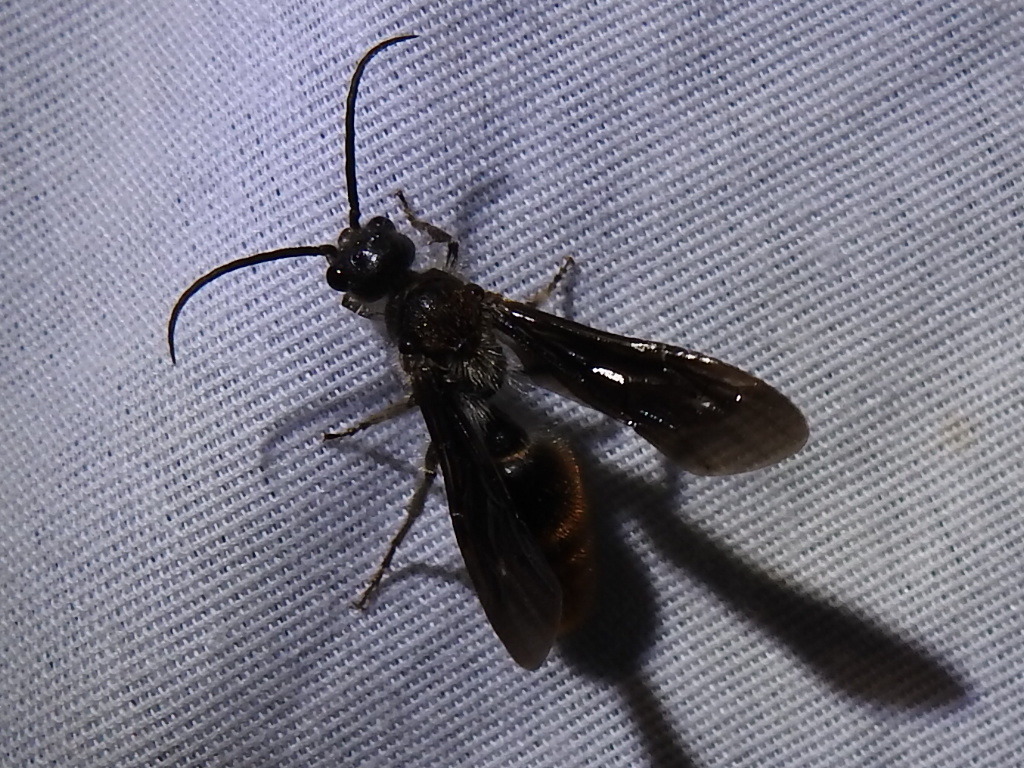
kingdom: Animalia
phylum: Arthropoda
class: Insecta
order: Hymenoptera
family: Mutillidae
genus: Sphaeropthalma
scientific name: Sphaeropthalma marpesia
